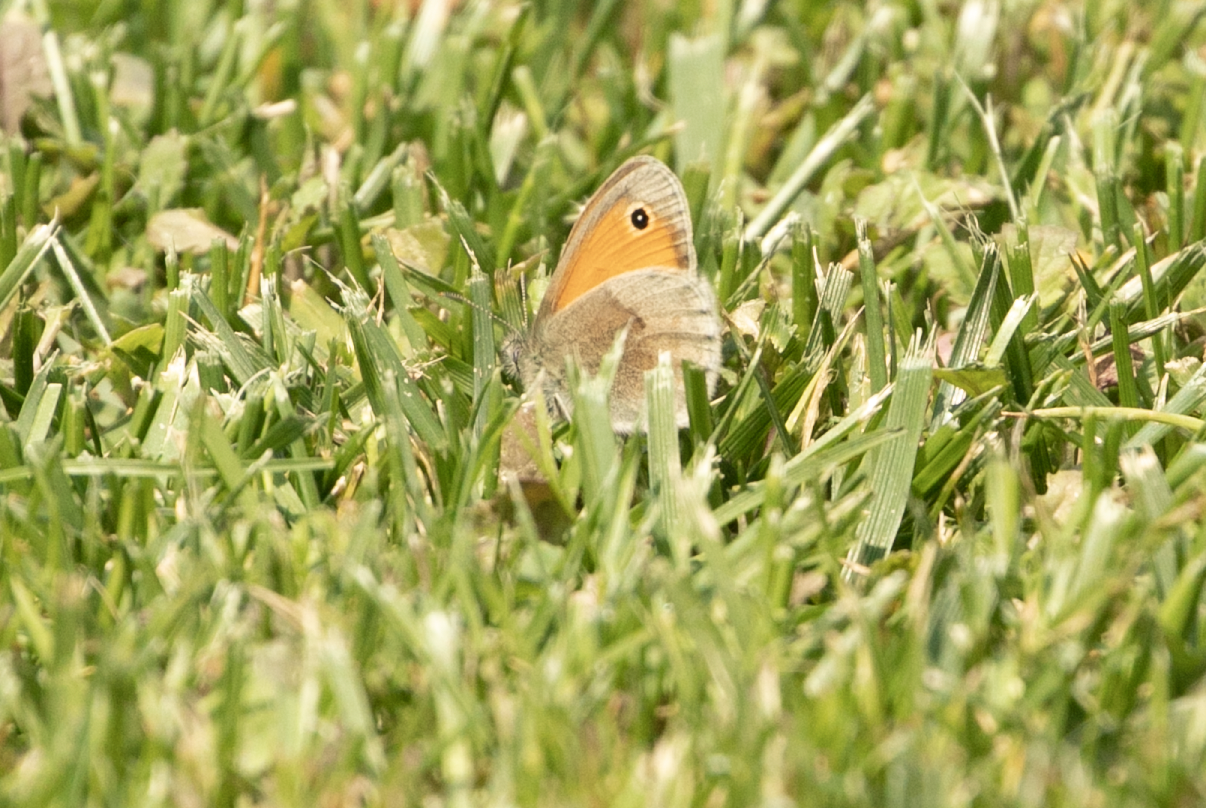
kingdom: Animalia
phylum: Arthropoda
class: Insecta
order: Lepidoptera
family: Nymphalidae
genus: Coenonympha
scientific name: Coenonympha pamphilus
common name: Small heath
